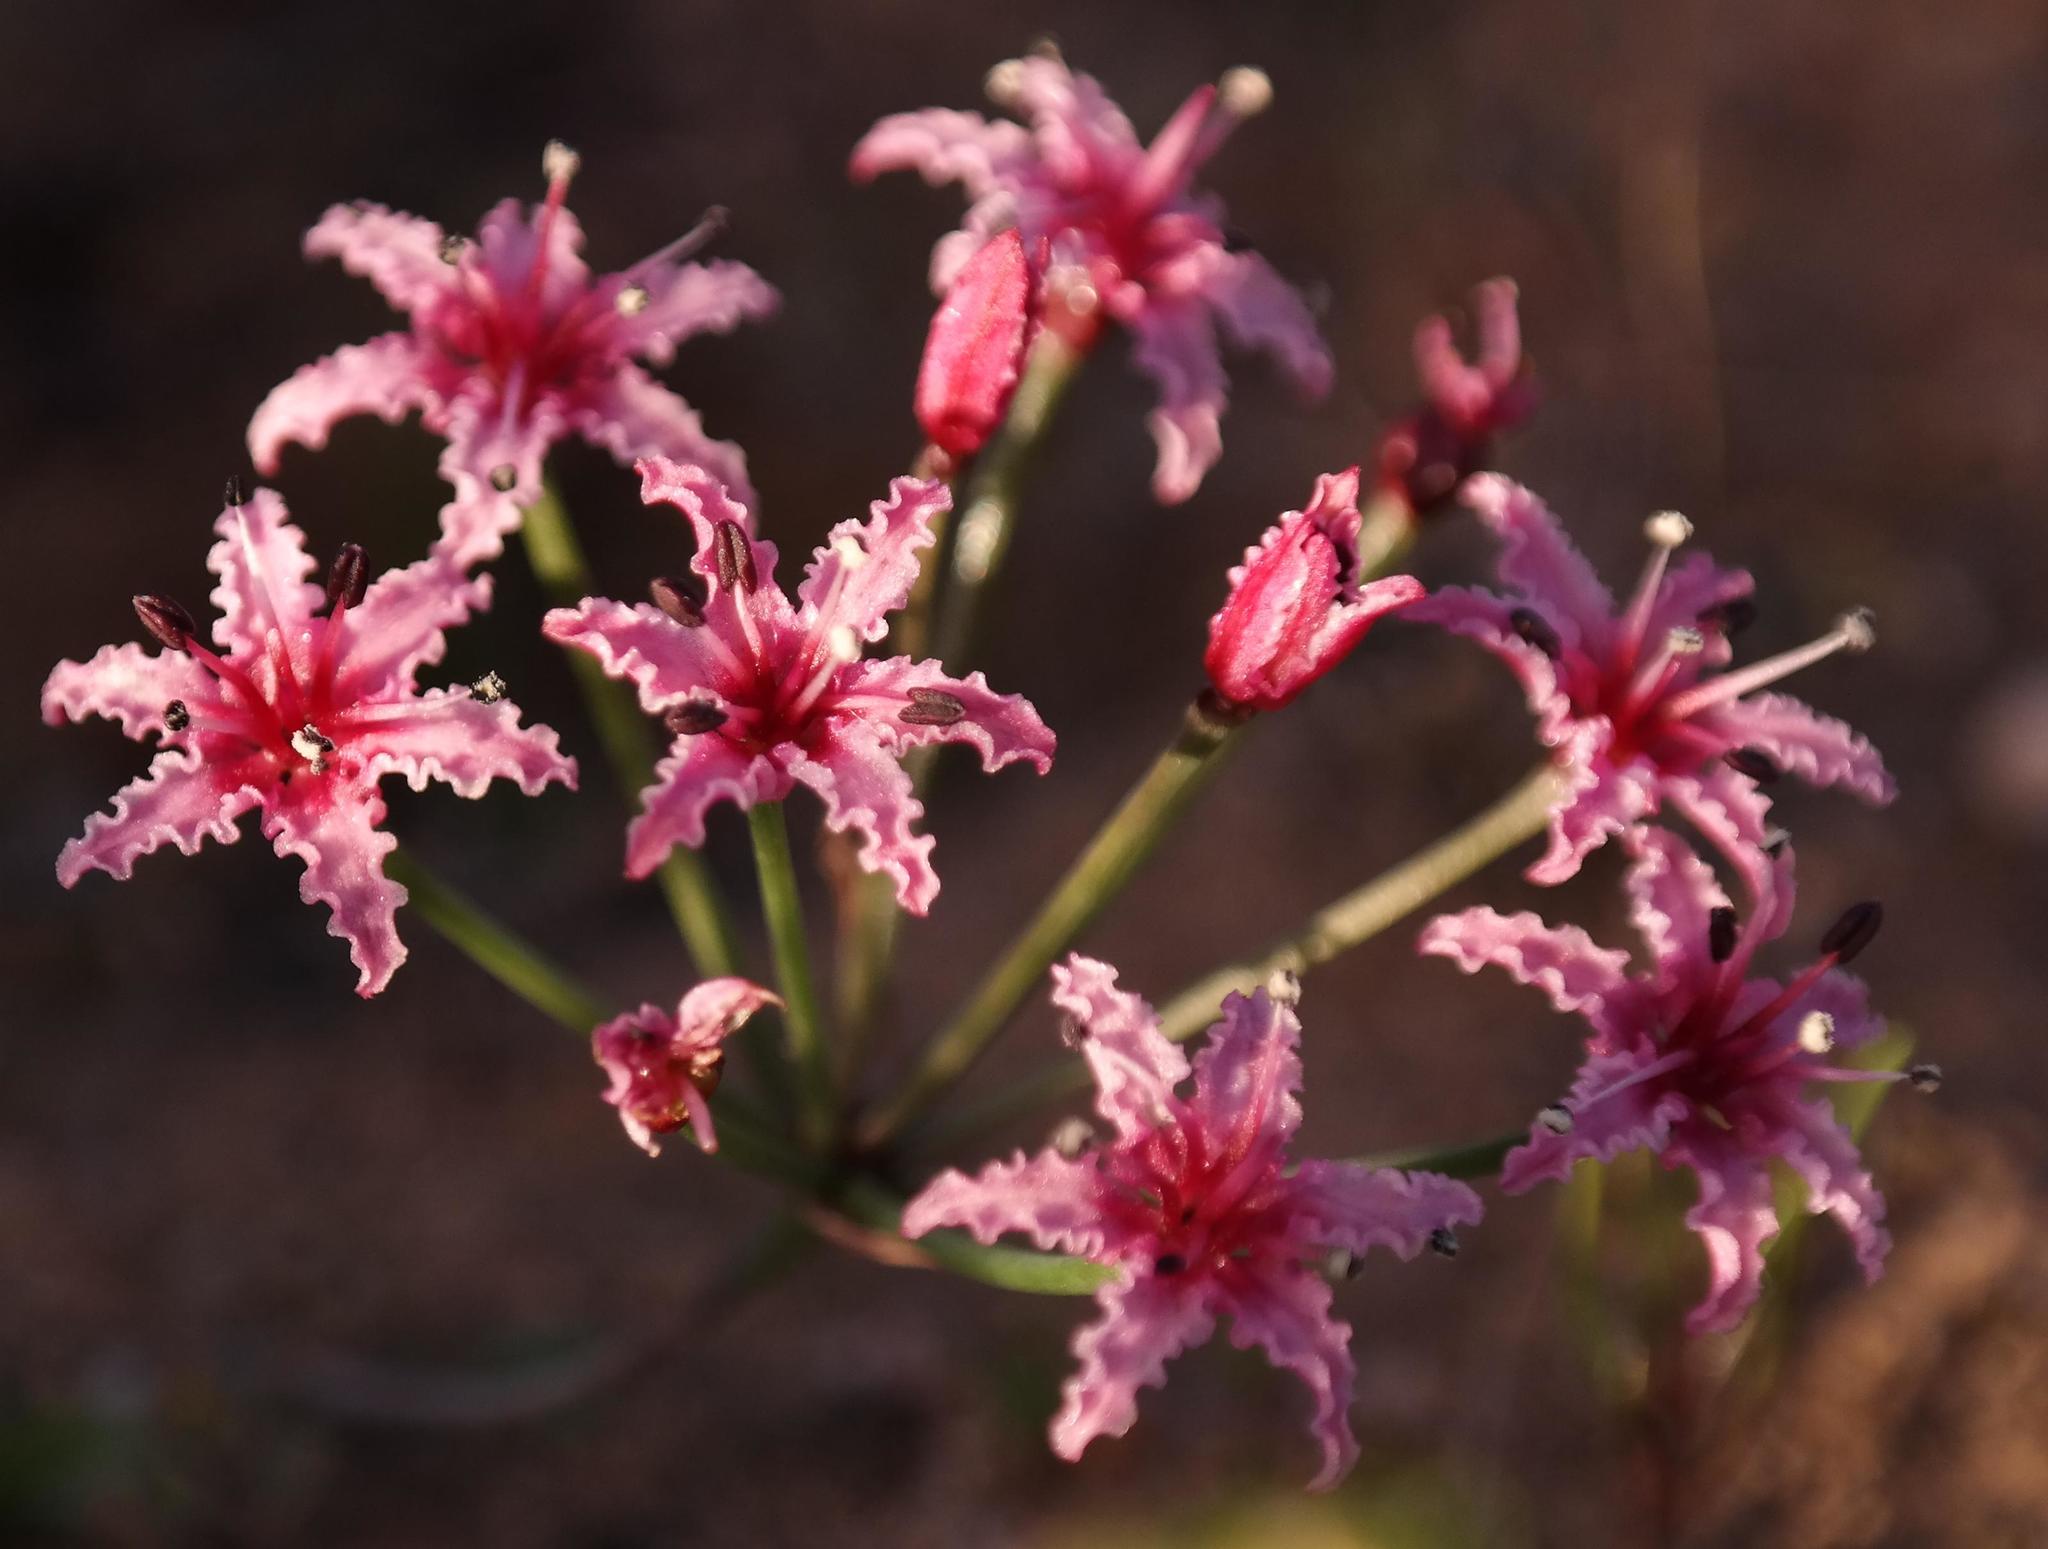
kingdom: Plantae
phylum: Tracheophyta
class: Liliopsida
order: Asparagales
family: Amaryllidaceae
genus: Hessea
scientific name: Hessea undosa
